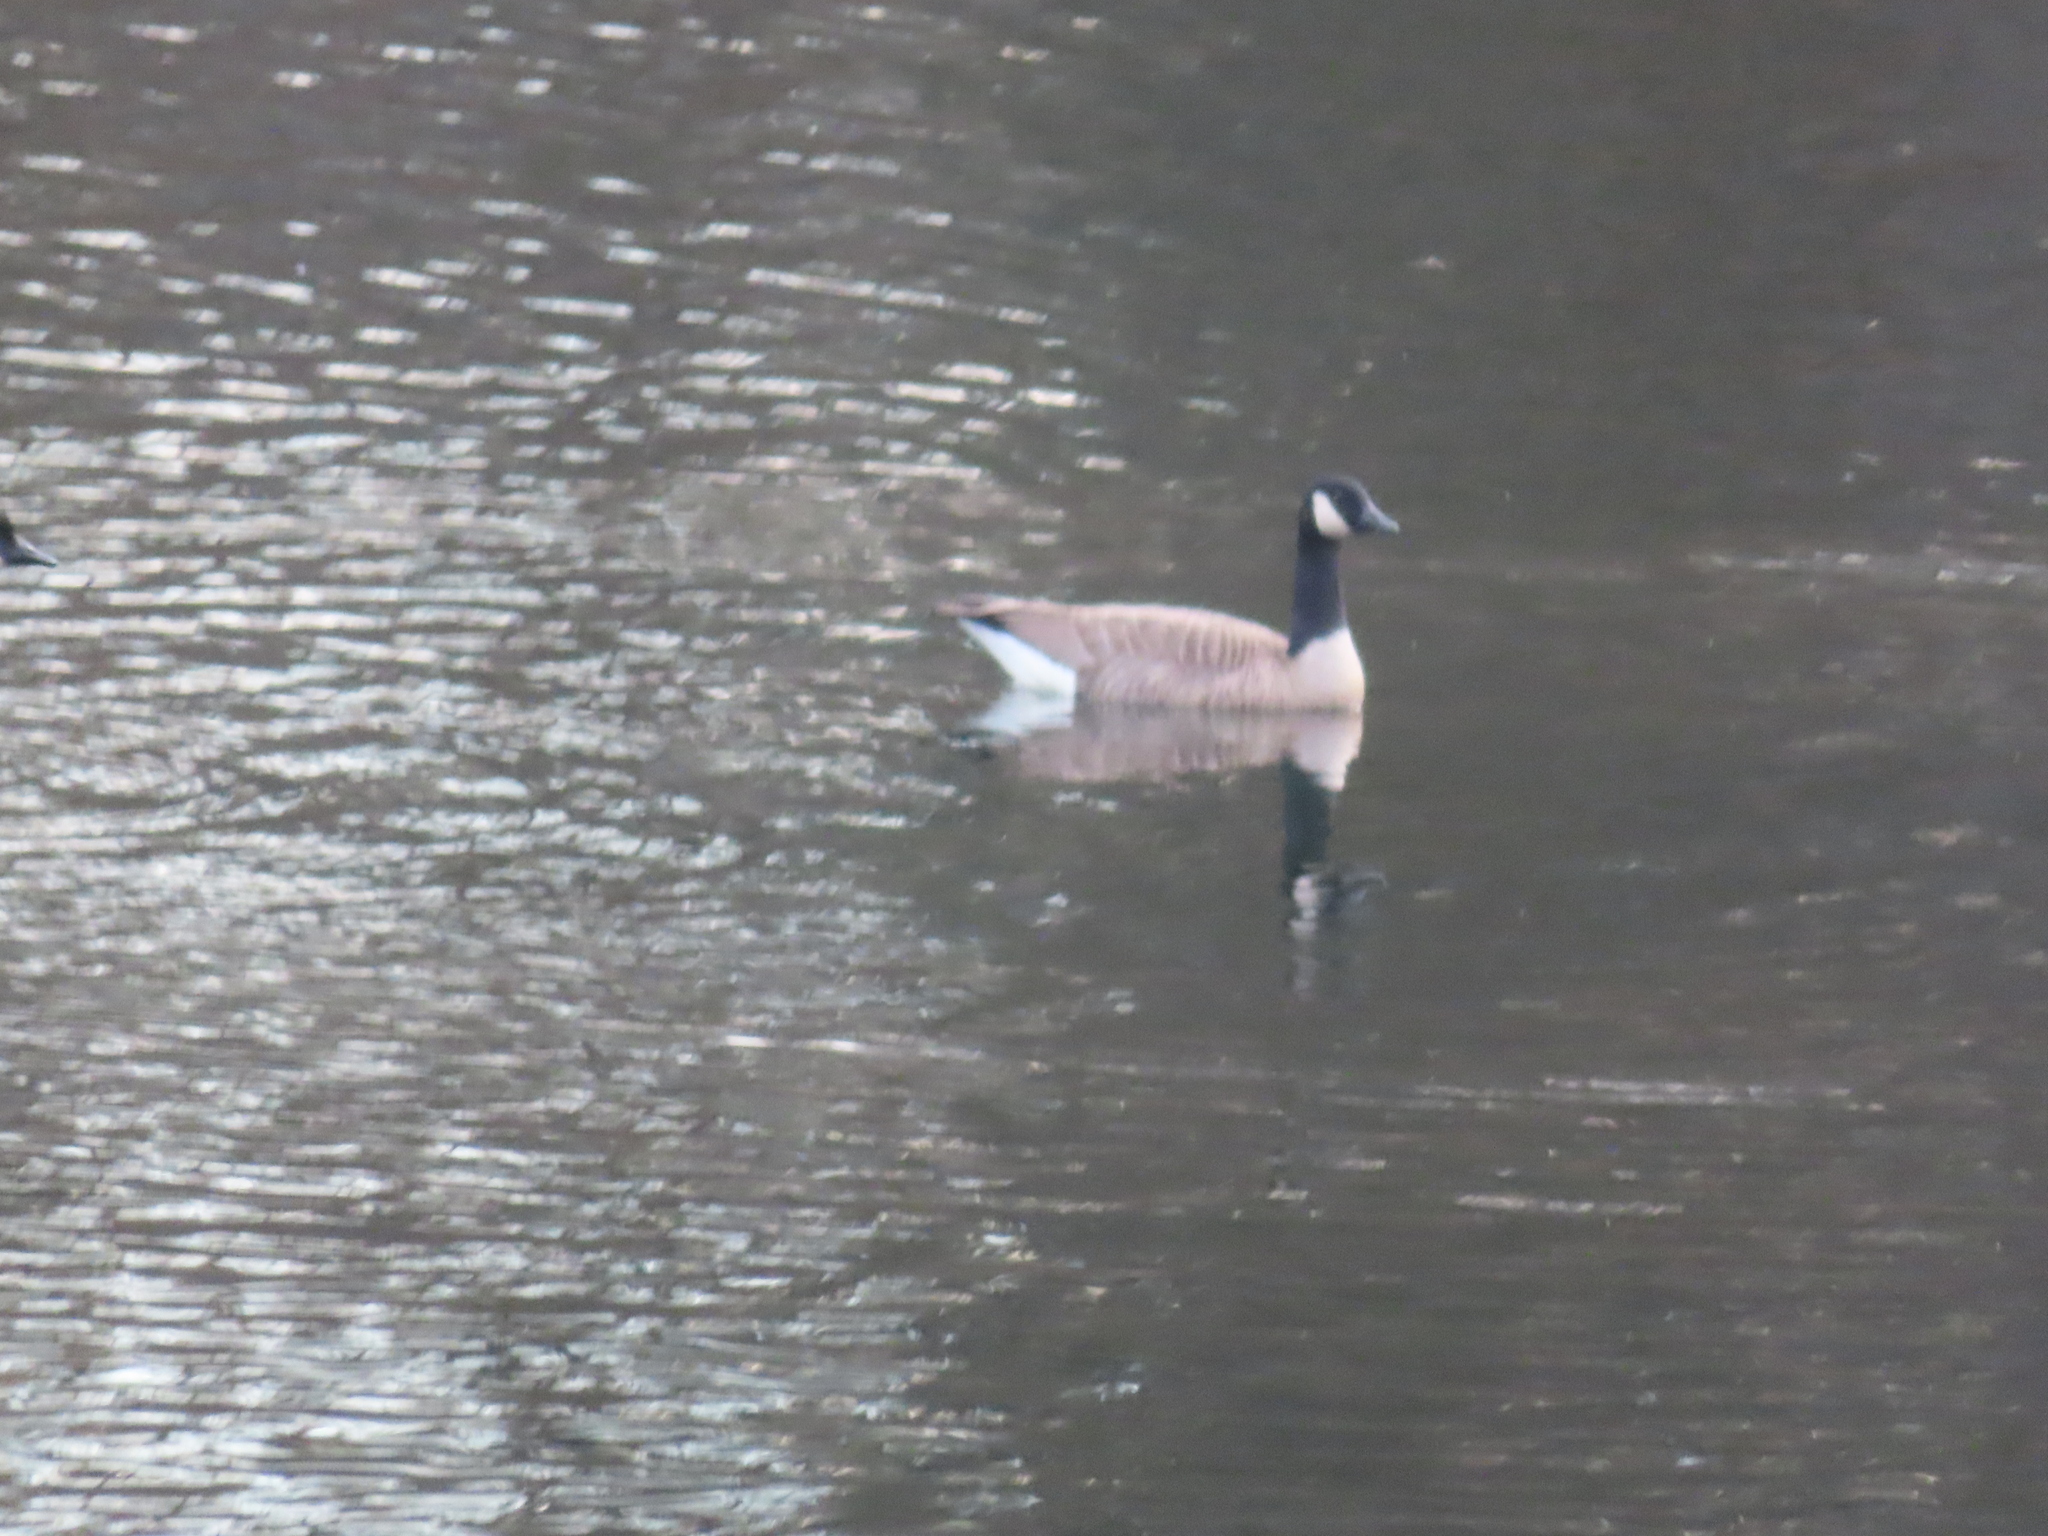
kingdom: Animalia
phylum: Chordata
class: Aves
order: Anseriformes
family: Anatidae
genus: Branta
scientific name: Branta canadensis
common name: Canada goose
